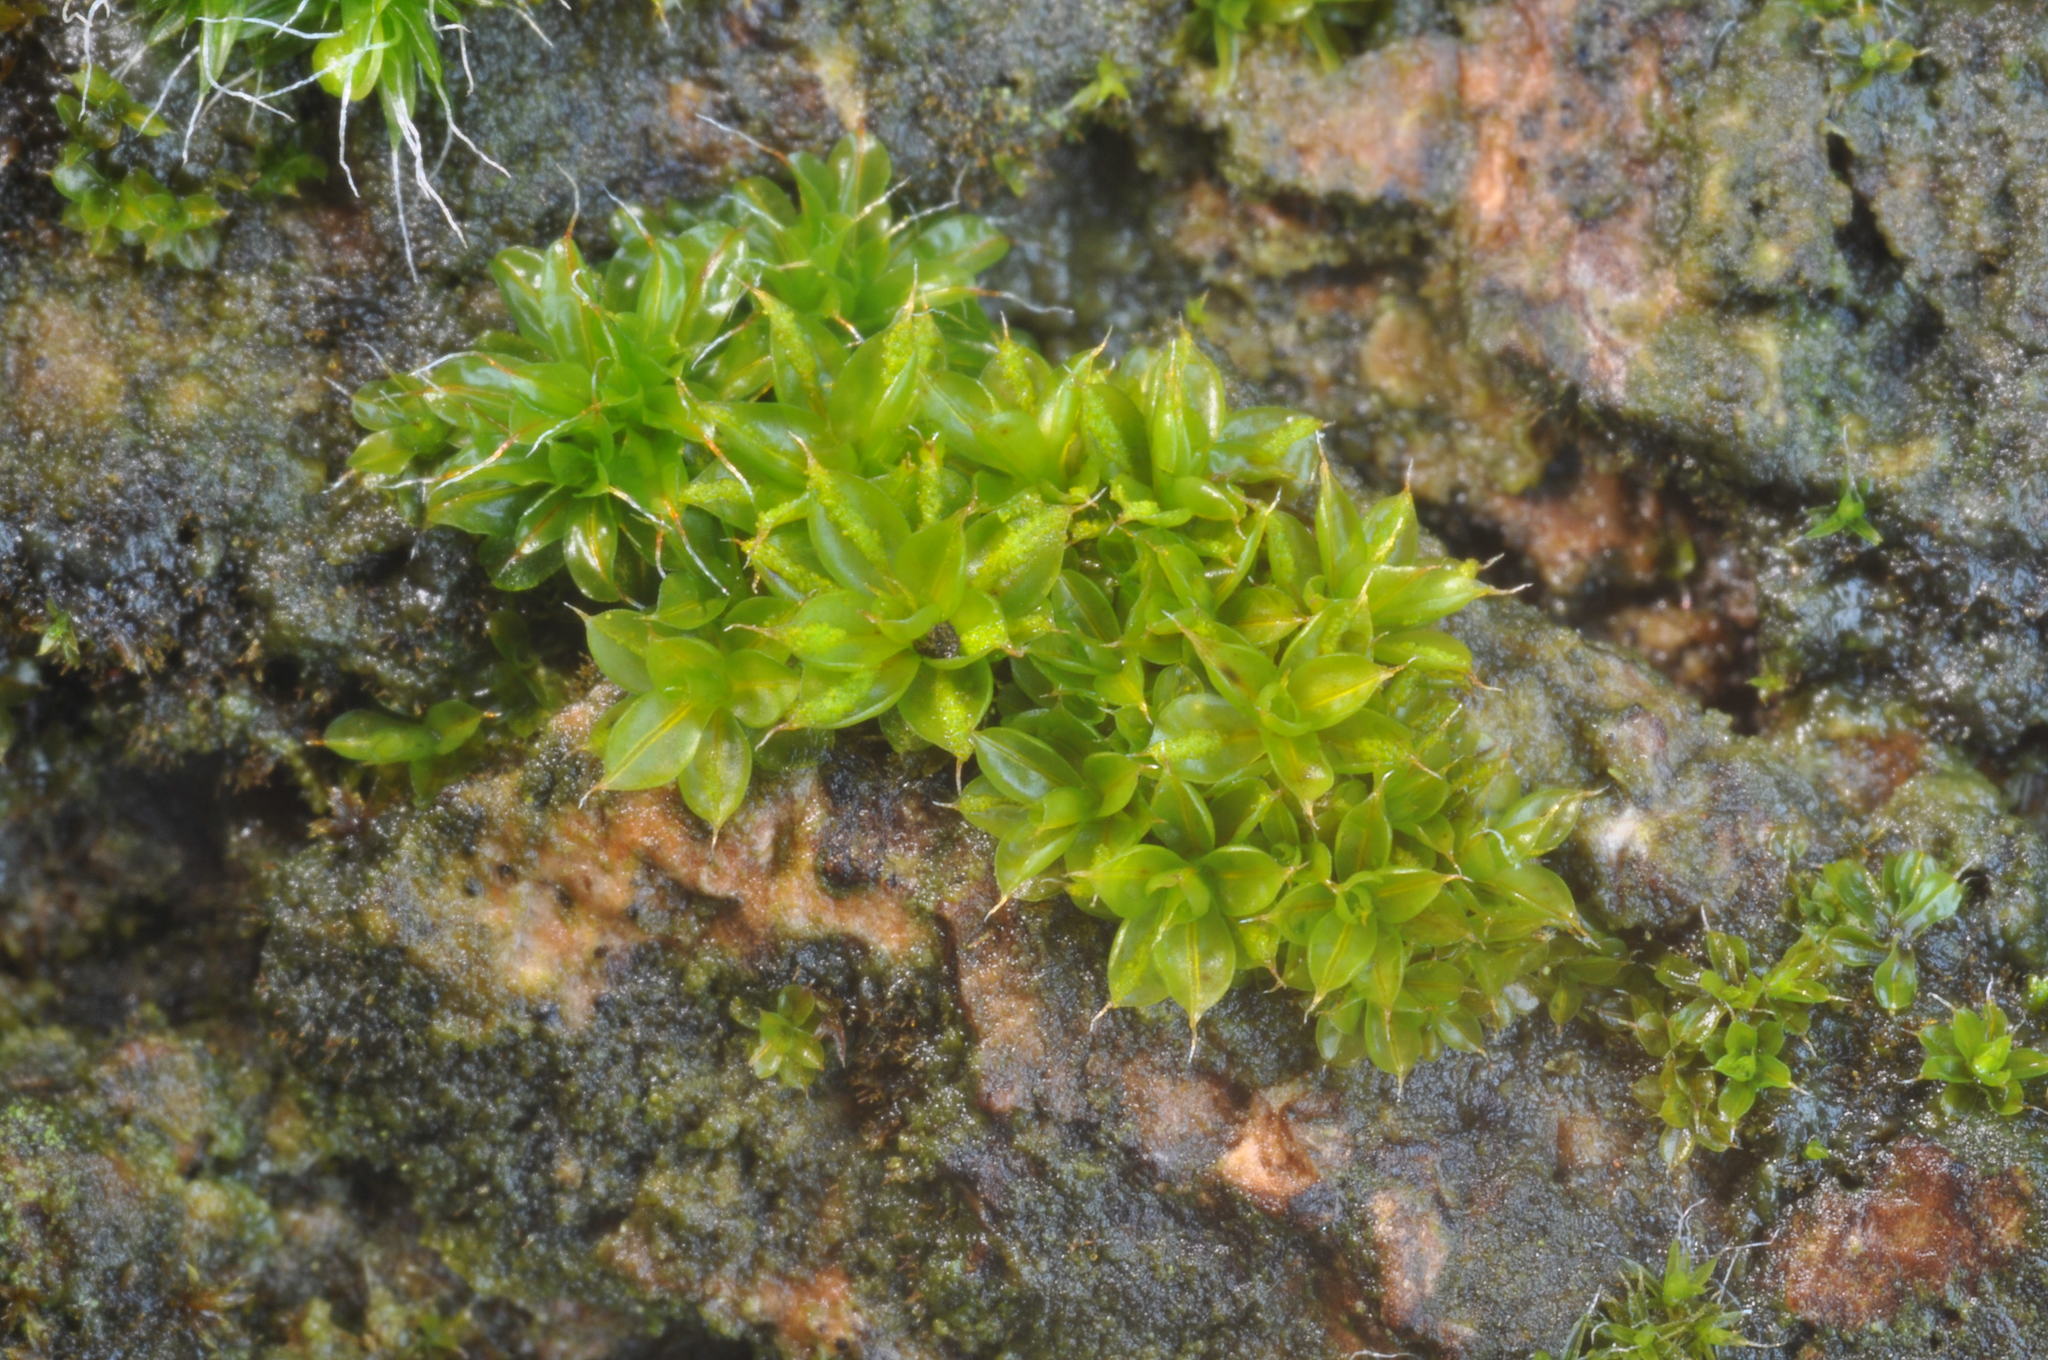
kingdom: Plantae
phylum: Bryophyta
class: Bryopsida
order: Pottiales
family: Pottiaceae
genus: Syntrichia
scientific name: Syntrichia papillosa
